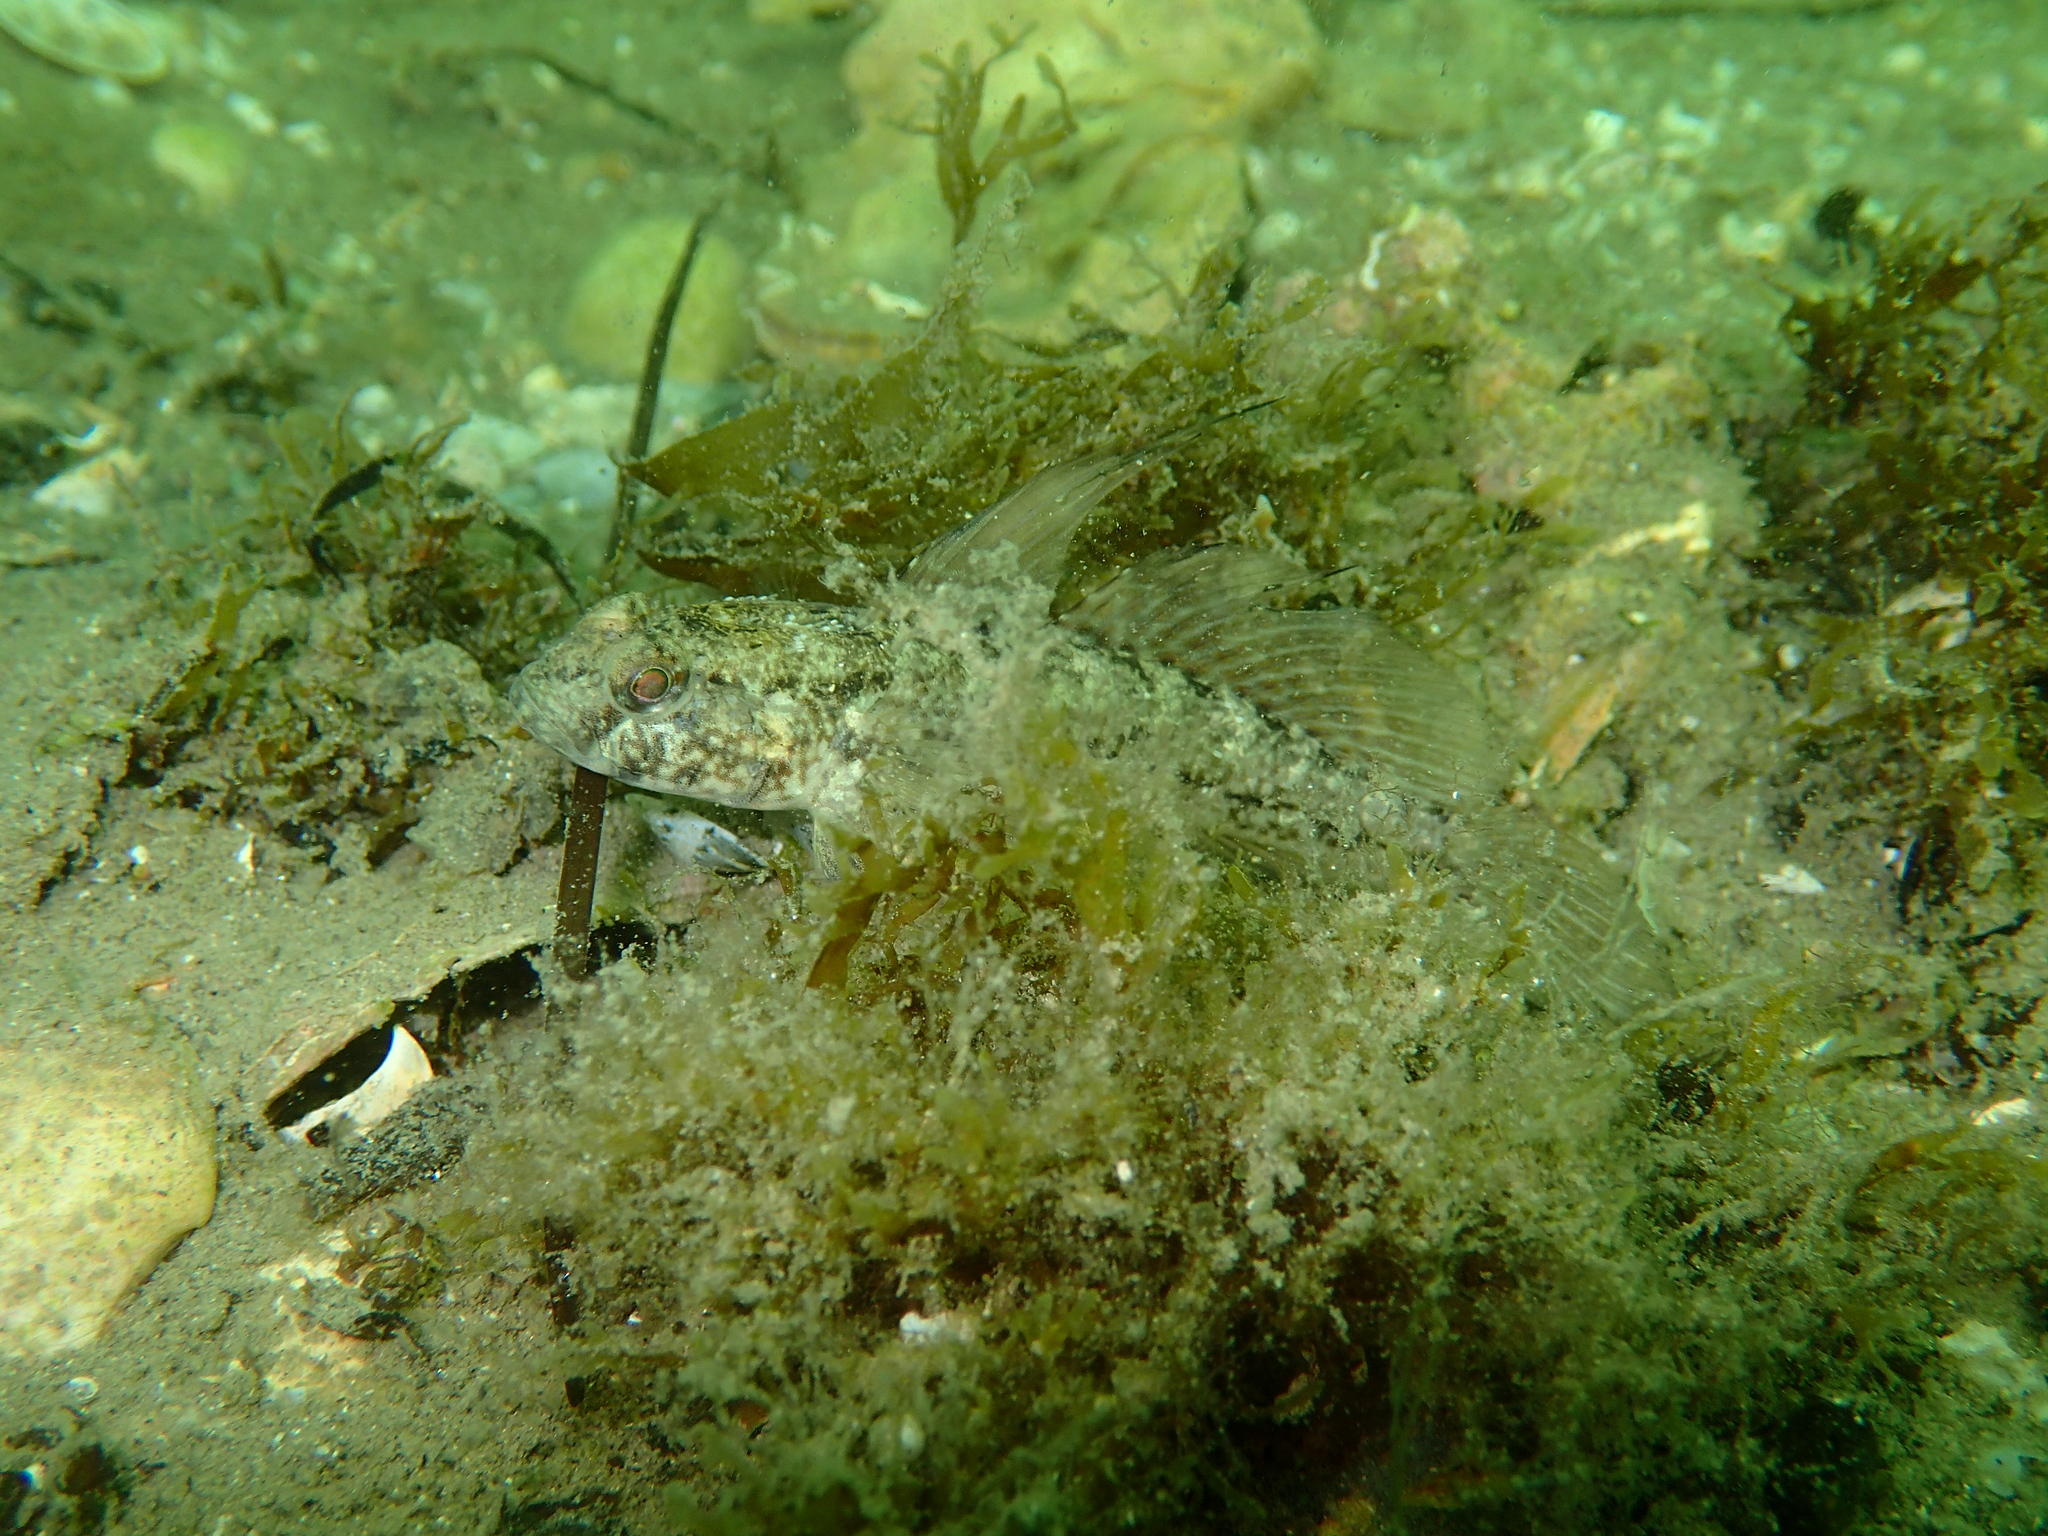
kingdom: Animalia
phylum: Chordata
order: Perciformes
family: Gobiidae
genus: Gobius
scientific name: Gobius niger
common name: Black goby
